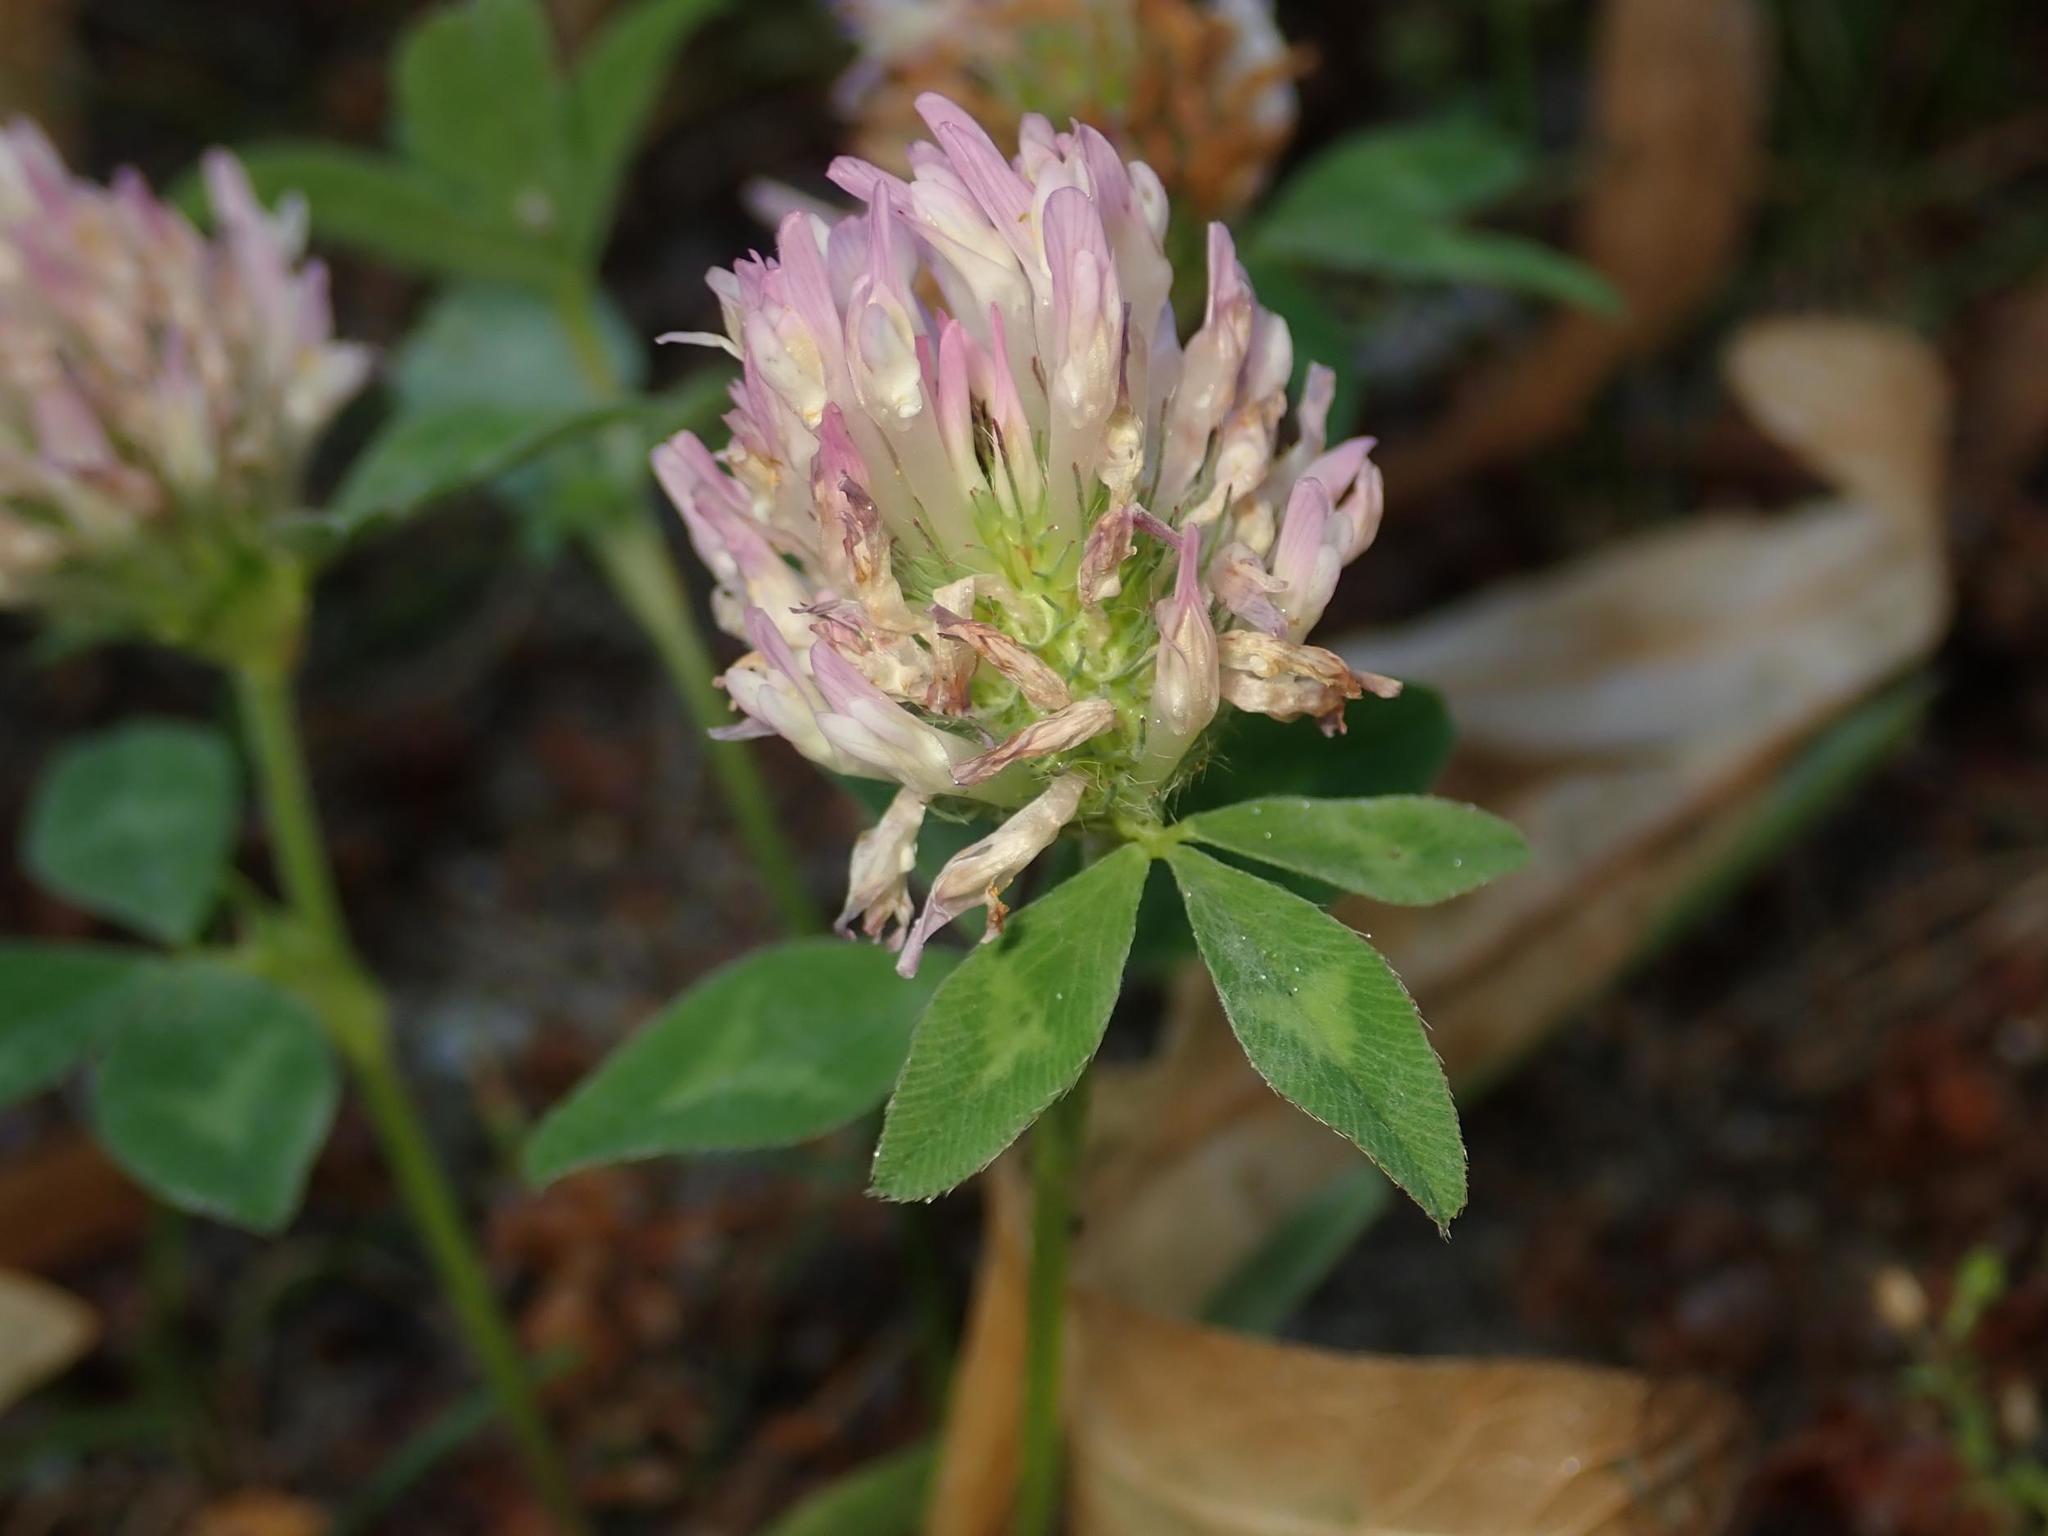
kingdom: Plantae
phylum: Tracheophyta
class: Magnoliopsida
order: Fabales
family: Fabaceae
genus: Trifolium
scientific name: Trifolium pratense
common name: Red clover
